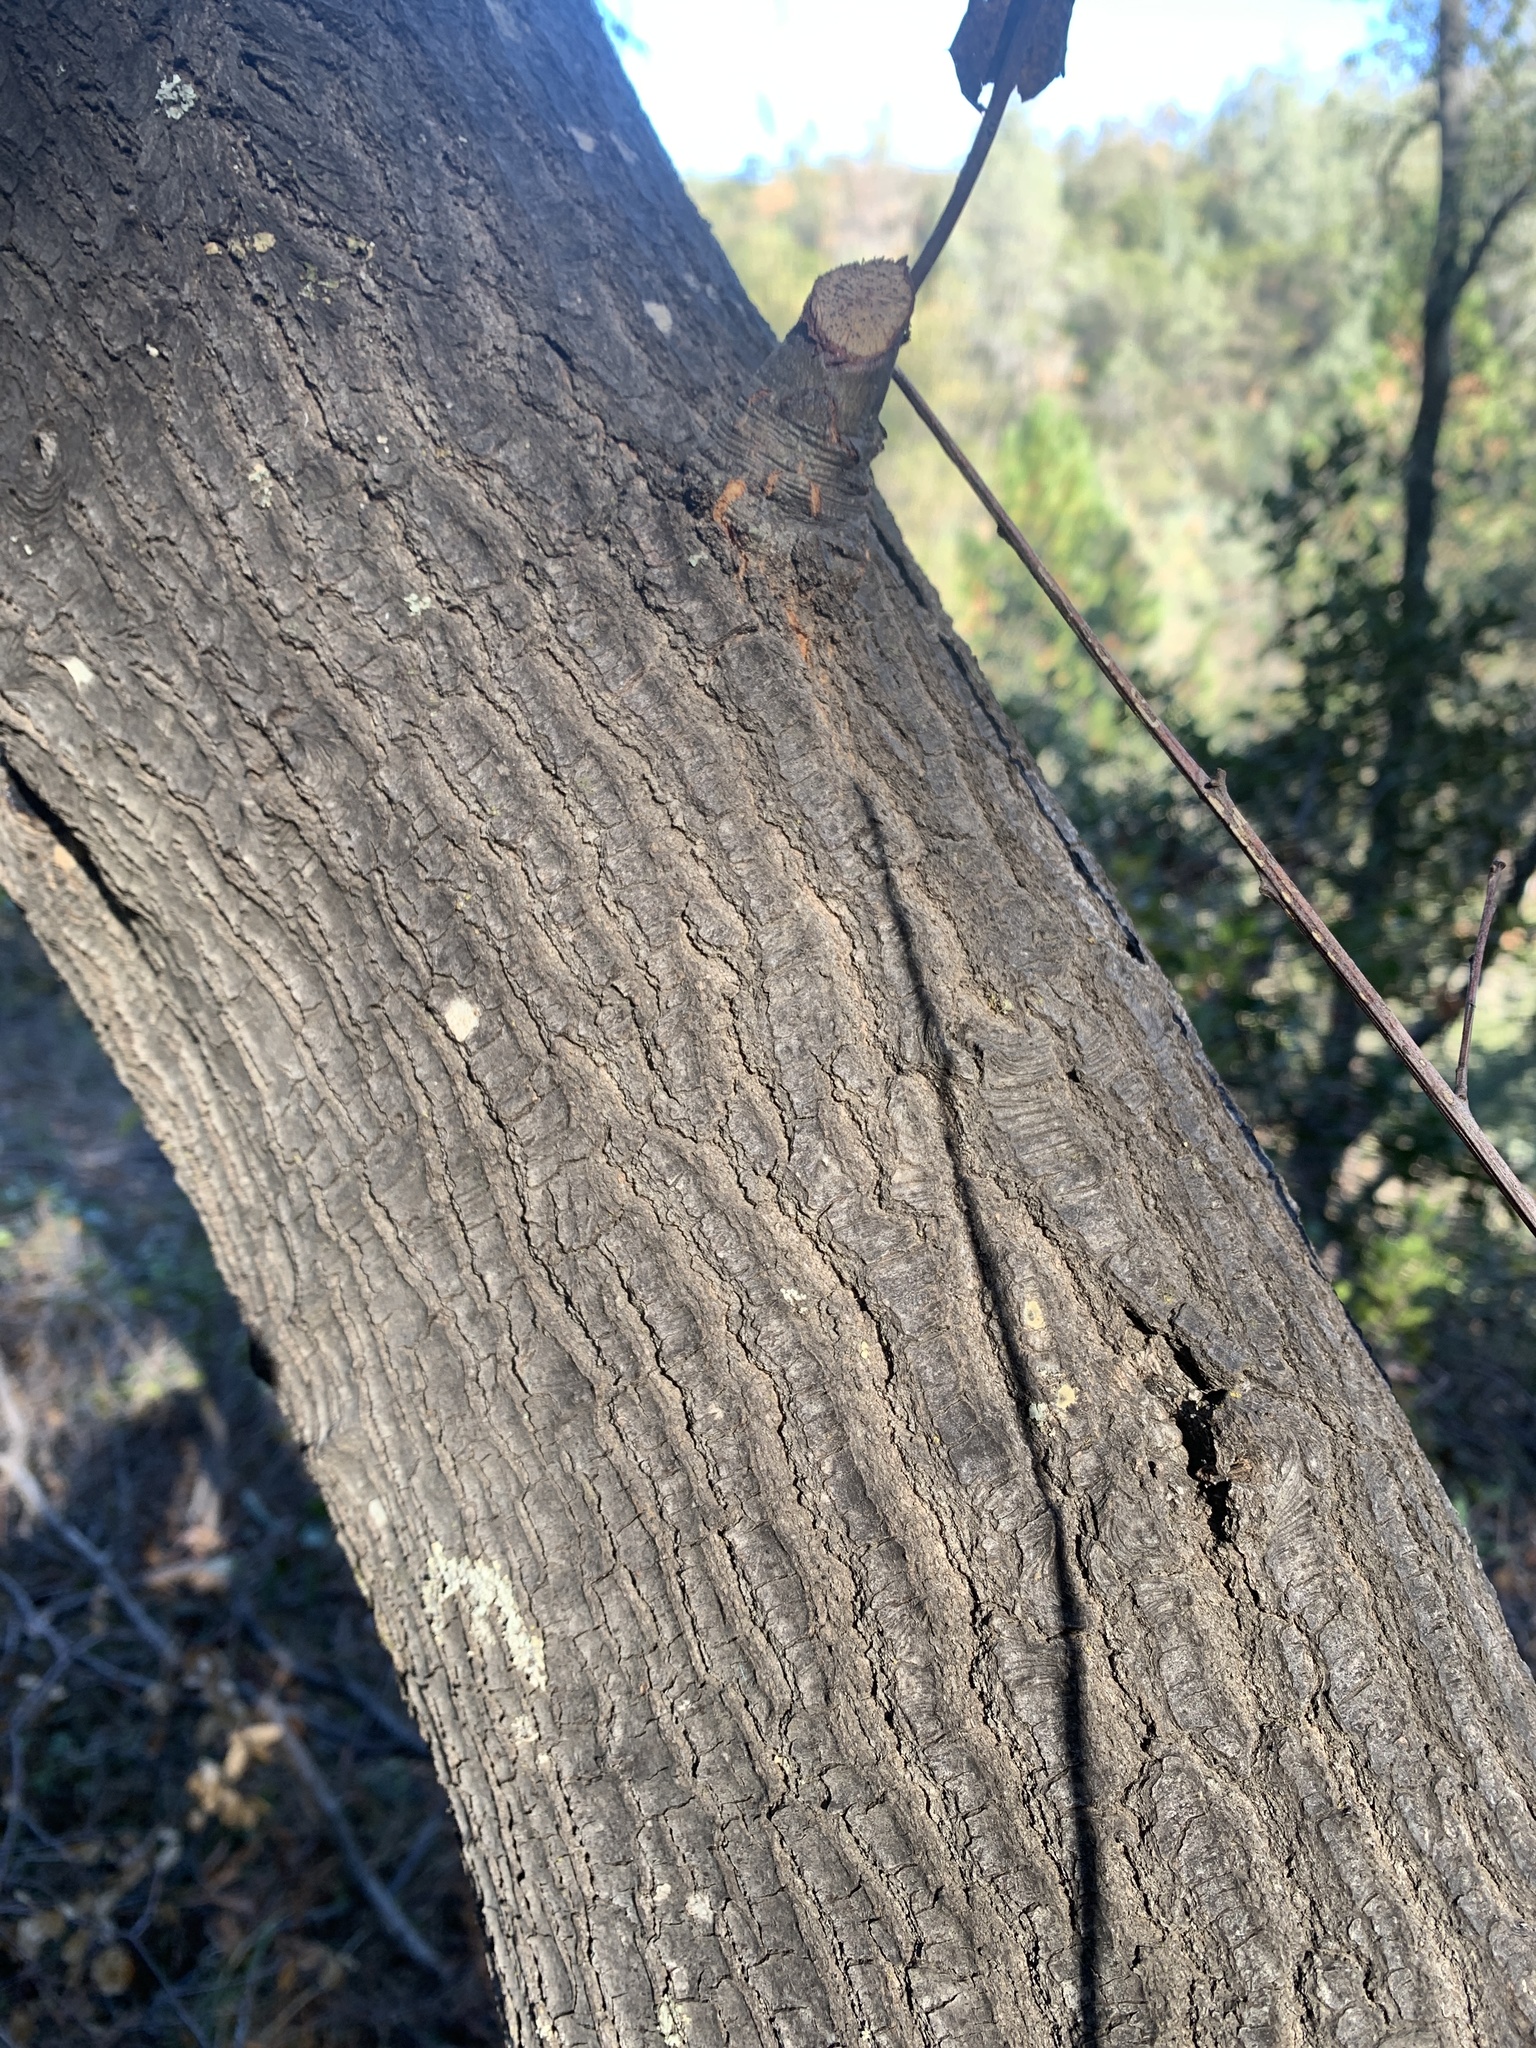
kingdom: Plantae
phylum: Tracheophyta
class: Magnoliopsida
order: Fagales
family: Fagaceae
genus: Quercus
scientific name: Quercus wislizeni
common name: Interior live oak
